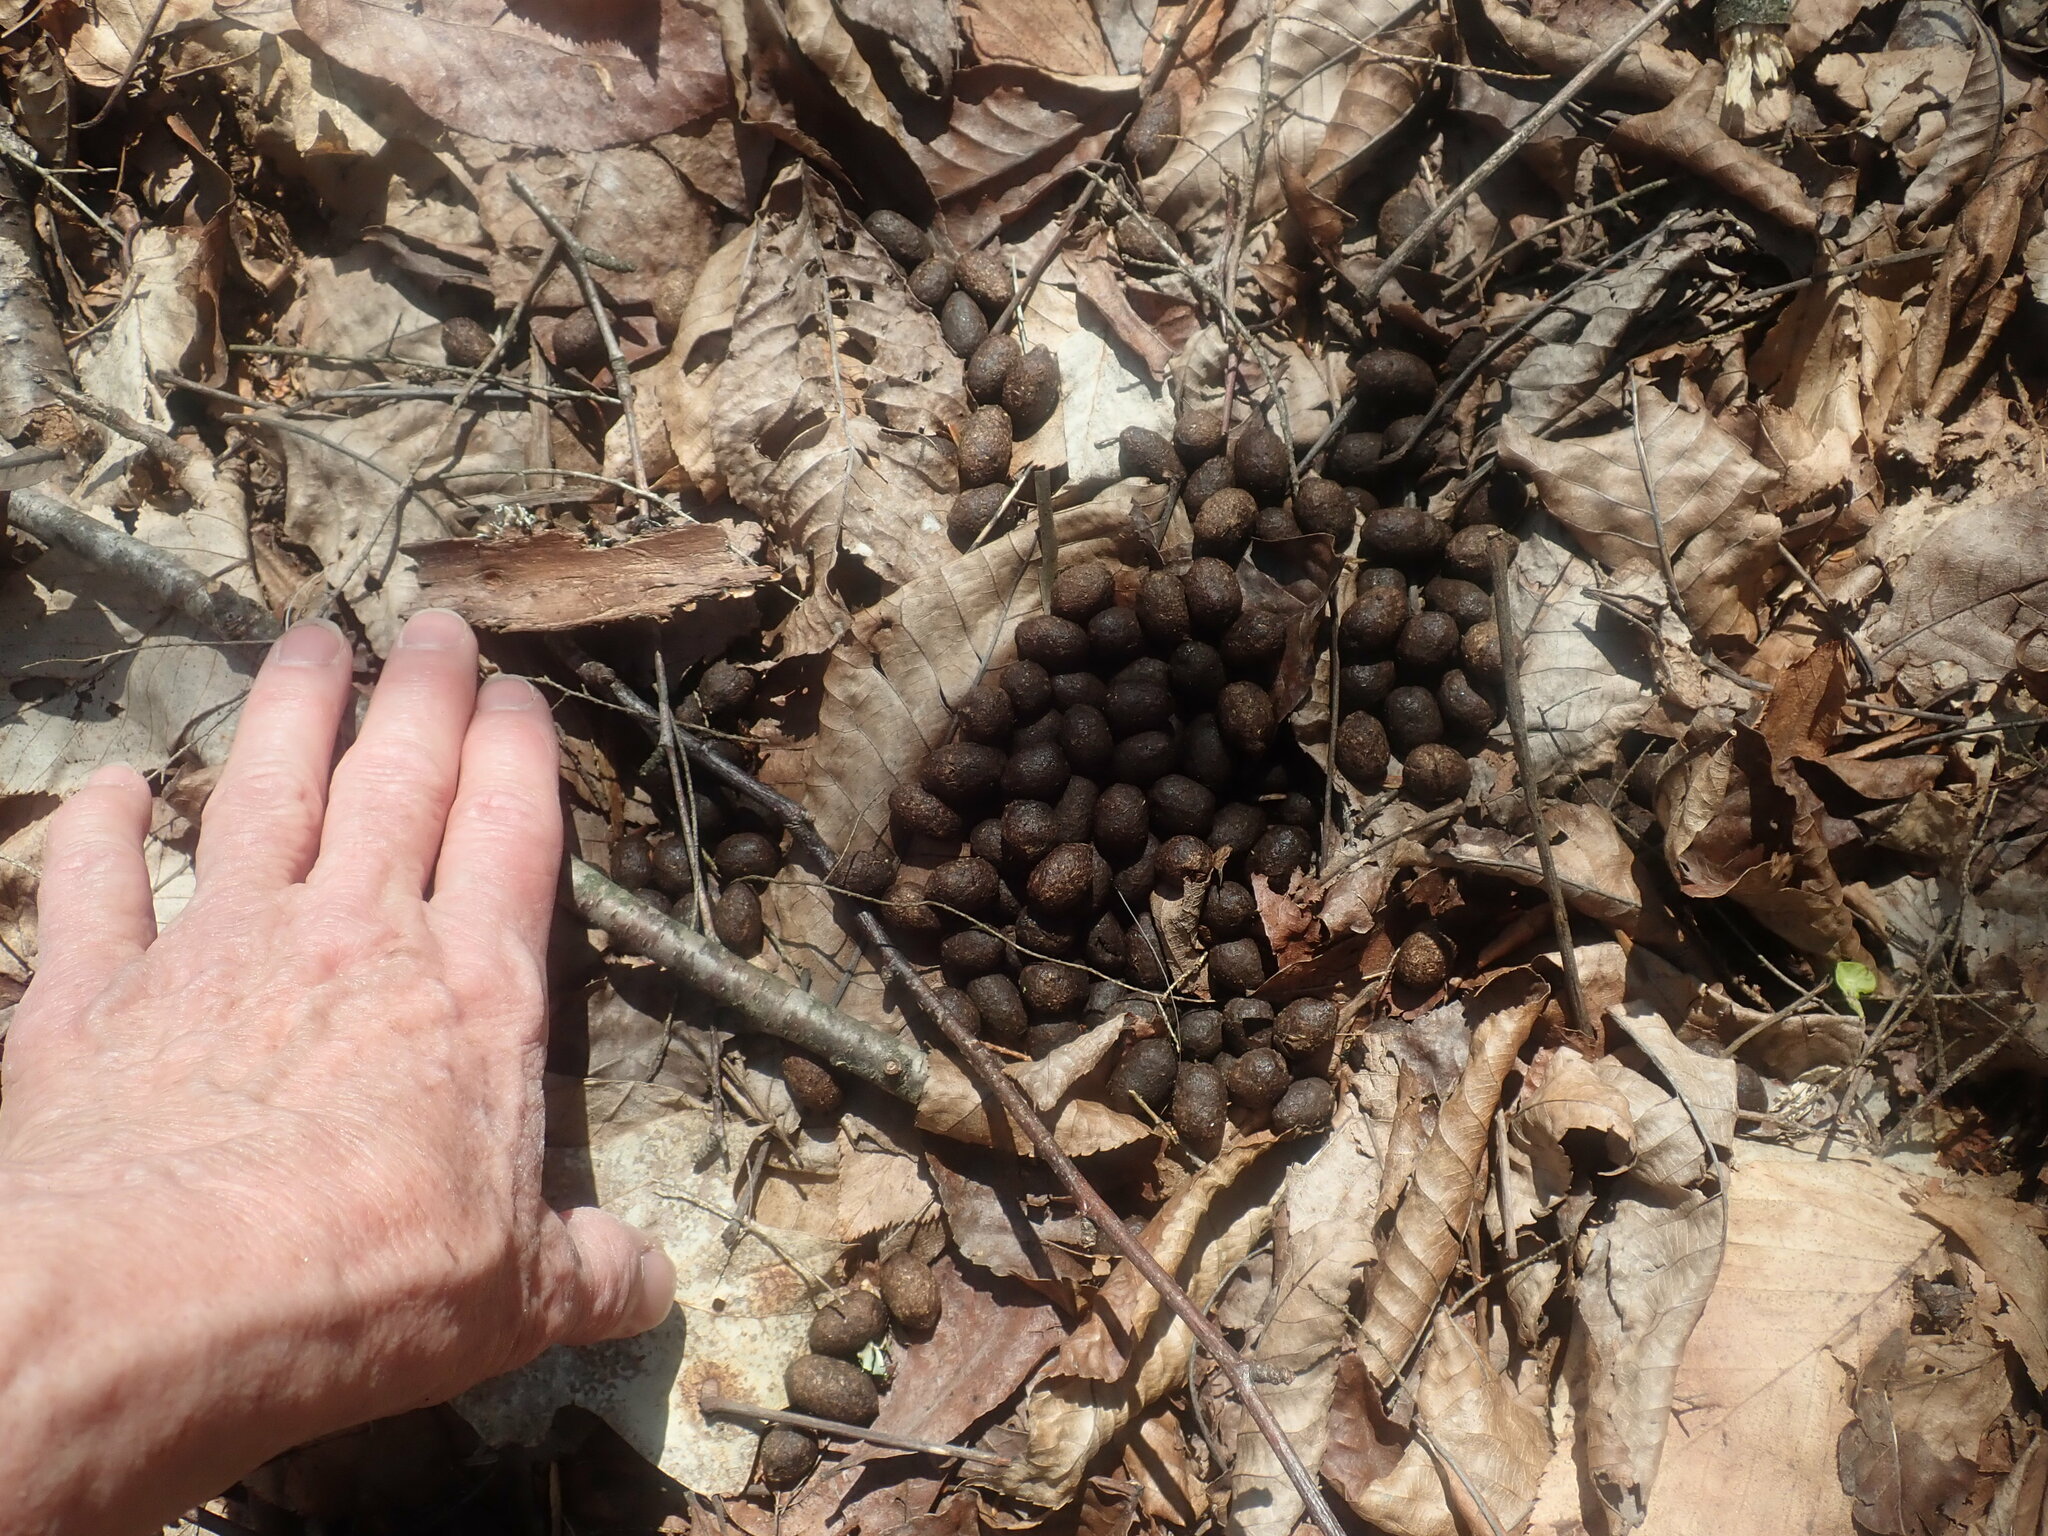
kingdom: Animalia
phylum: Chordata
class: Mammalia
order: Artiodactyla
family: Cervidae
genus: Odocoileus
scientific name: Odocoileus virginianus
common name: White-tailed deer
